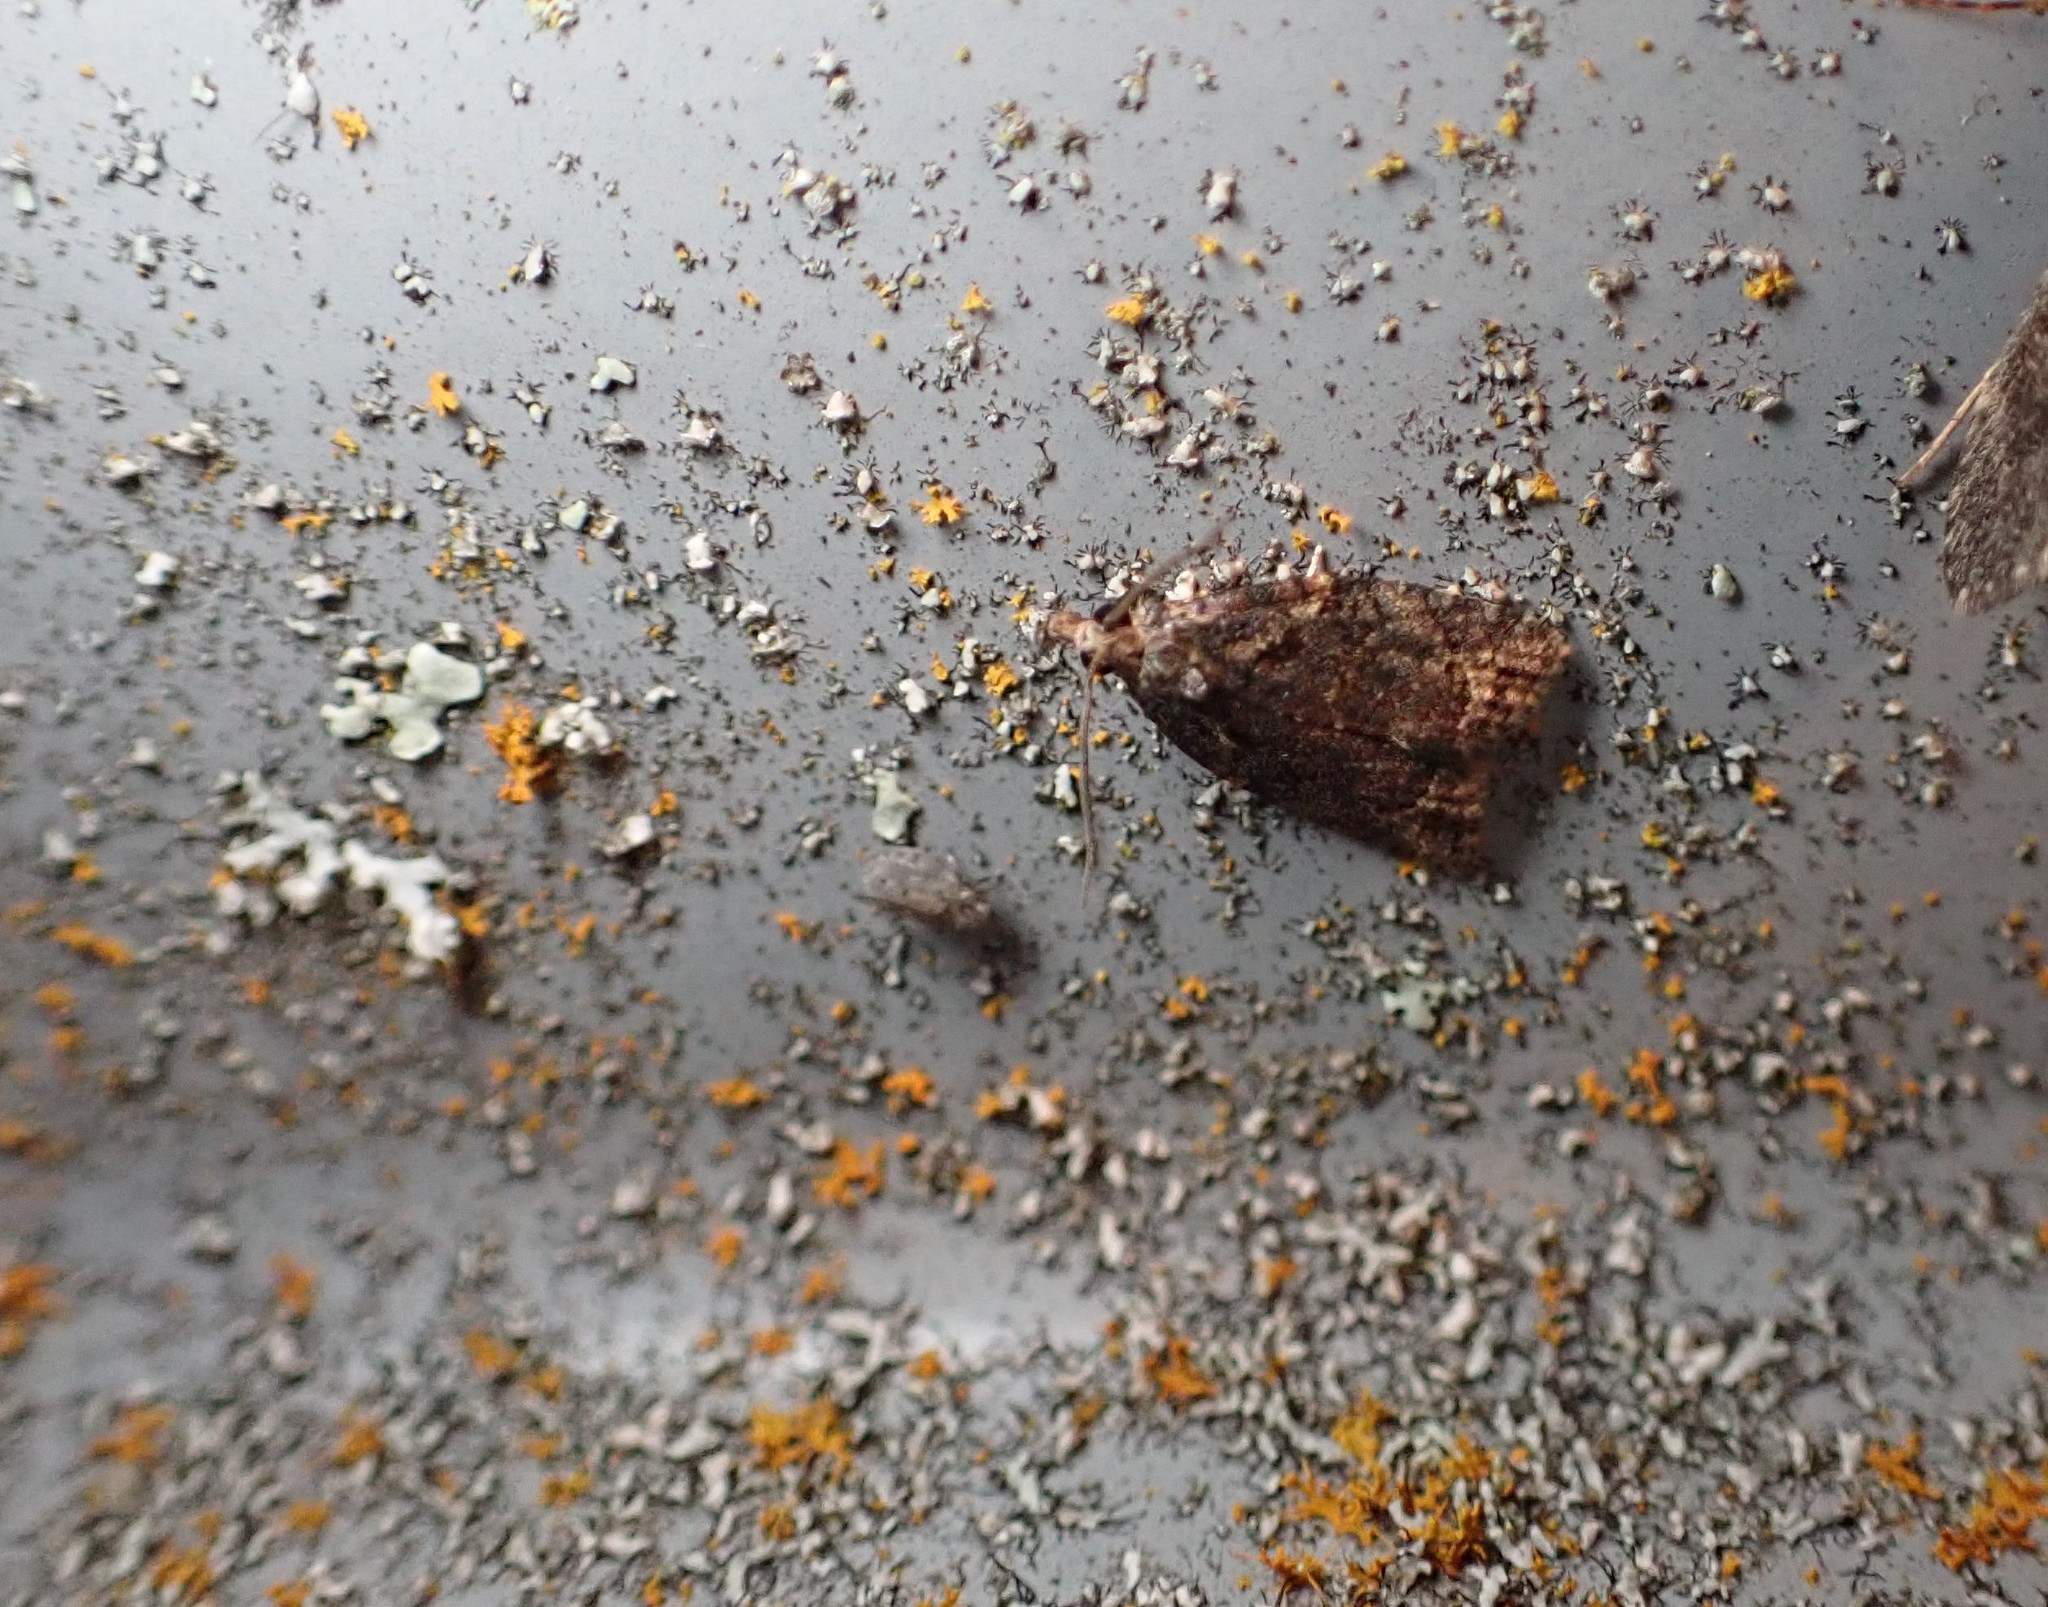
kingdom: Animalia
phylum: Arthropoda
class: Insecta
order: Lepidoptera
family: Tortricidae
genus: Capua
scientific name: Capua intractana
